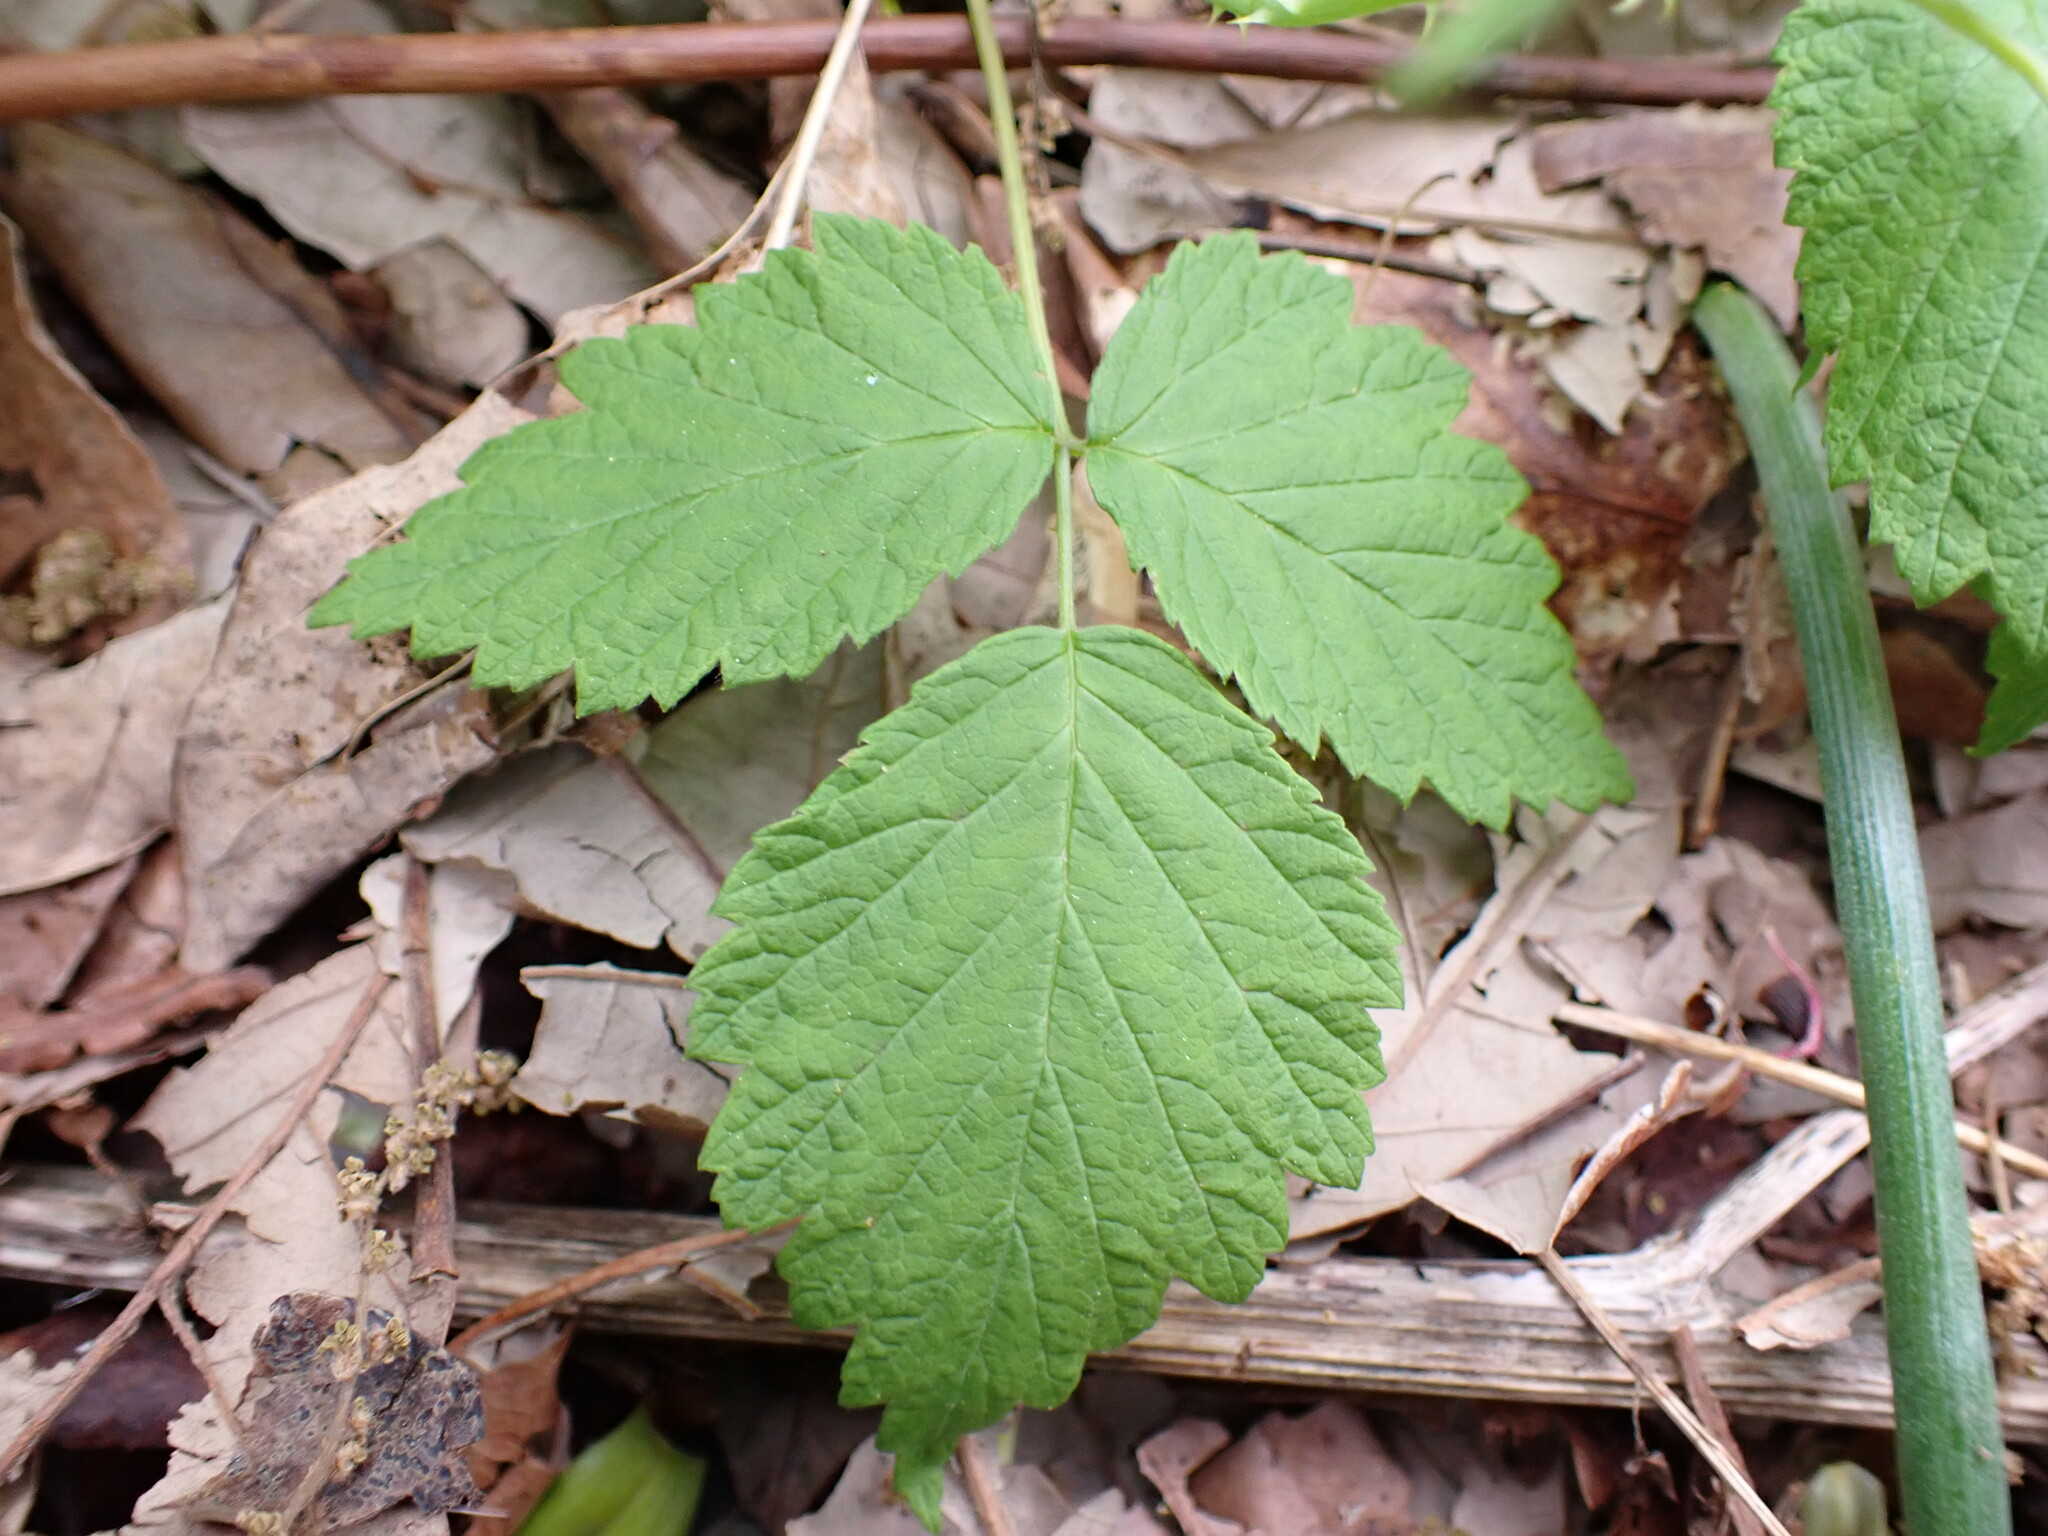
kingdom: Plantae
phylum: Tracheophyta
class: Magnoliopsida
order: Rosales
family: Rosaceae
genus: Rubus
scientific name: Rubus occidentalis
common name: Black raspberry
